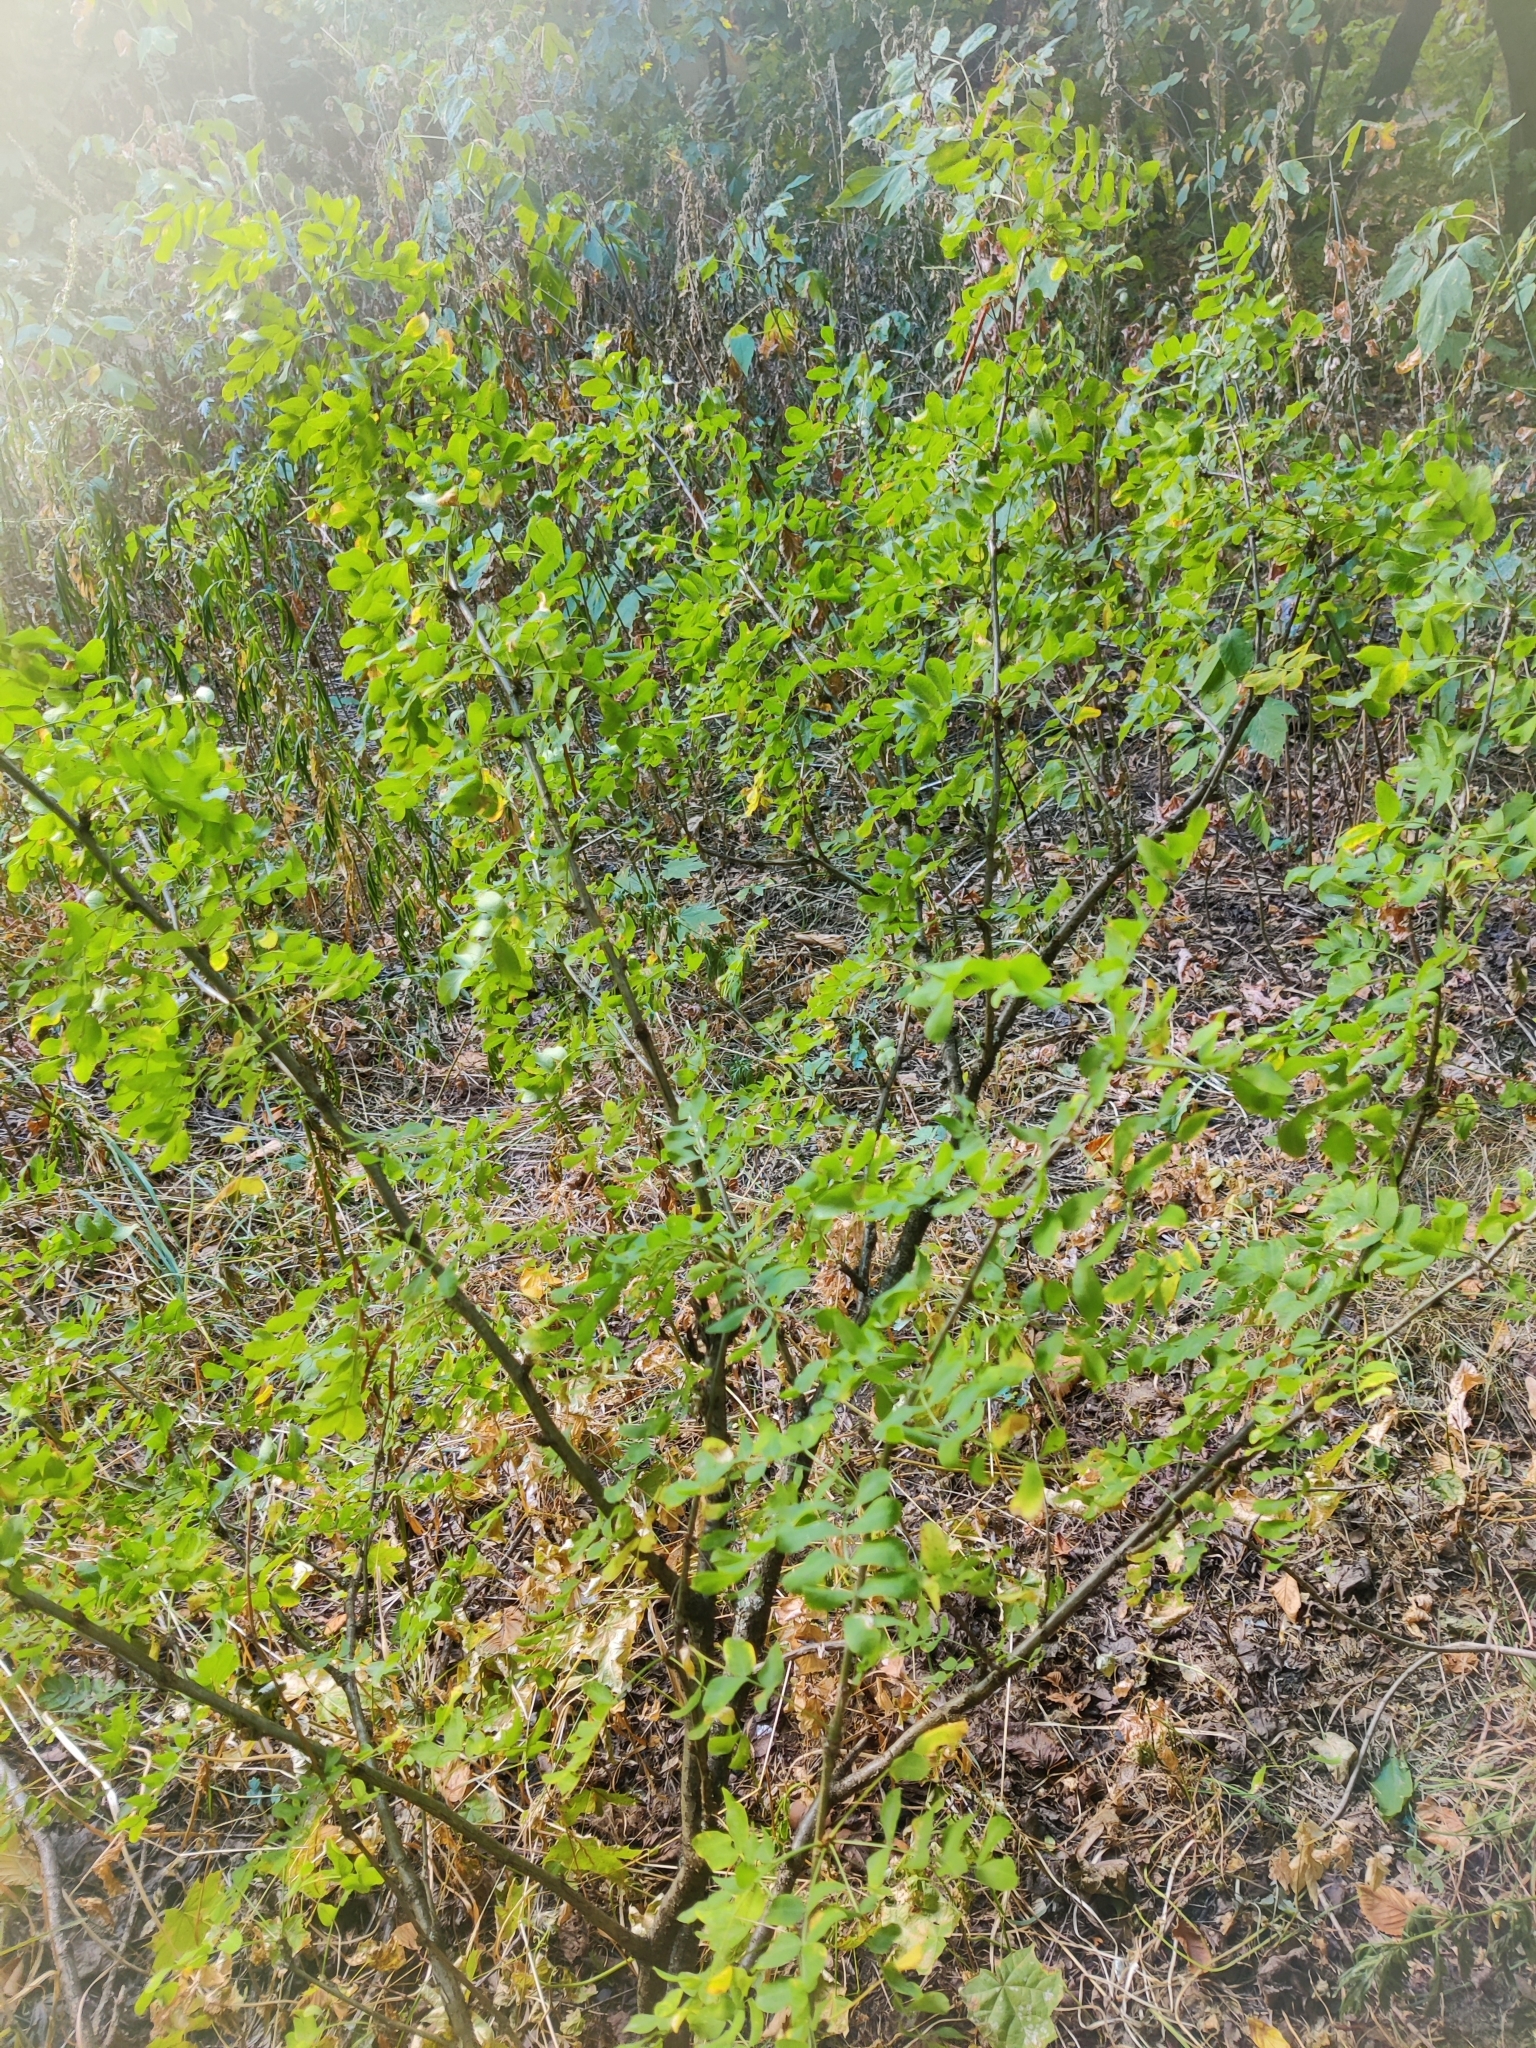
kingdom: Plantae
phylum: Tracheophyta
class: Magnoliopsida
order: Fabales
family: Fabaceae
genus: Caragana
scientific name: Caragana arborescens
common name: Siberian peashrub
